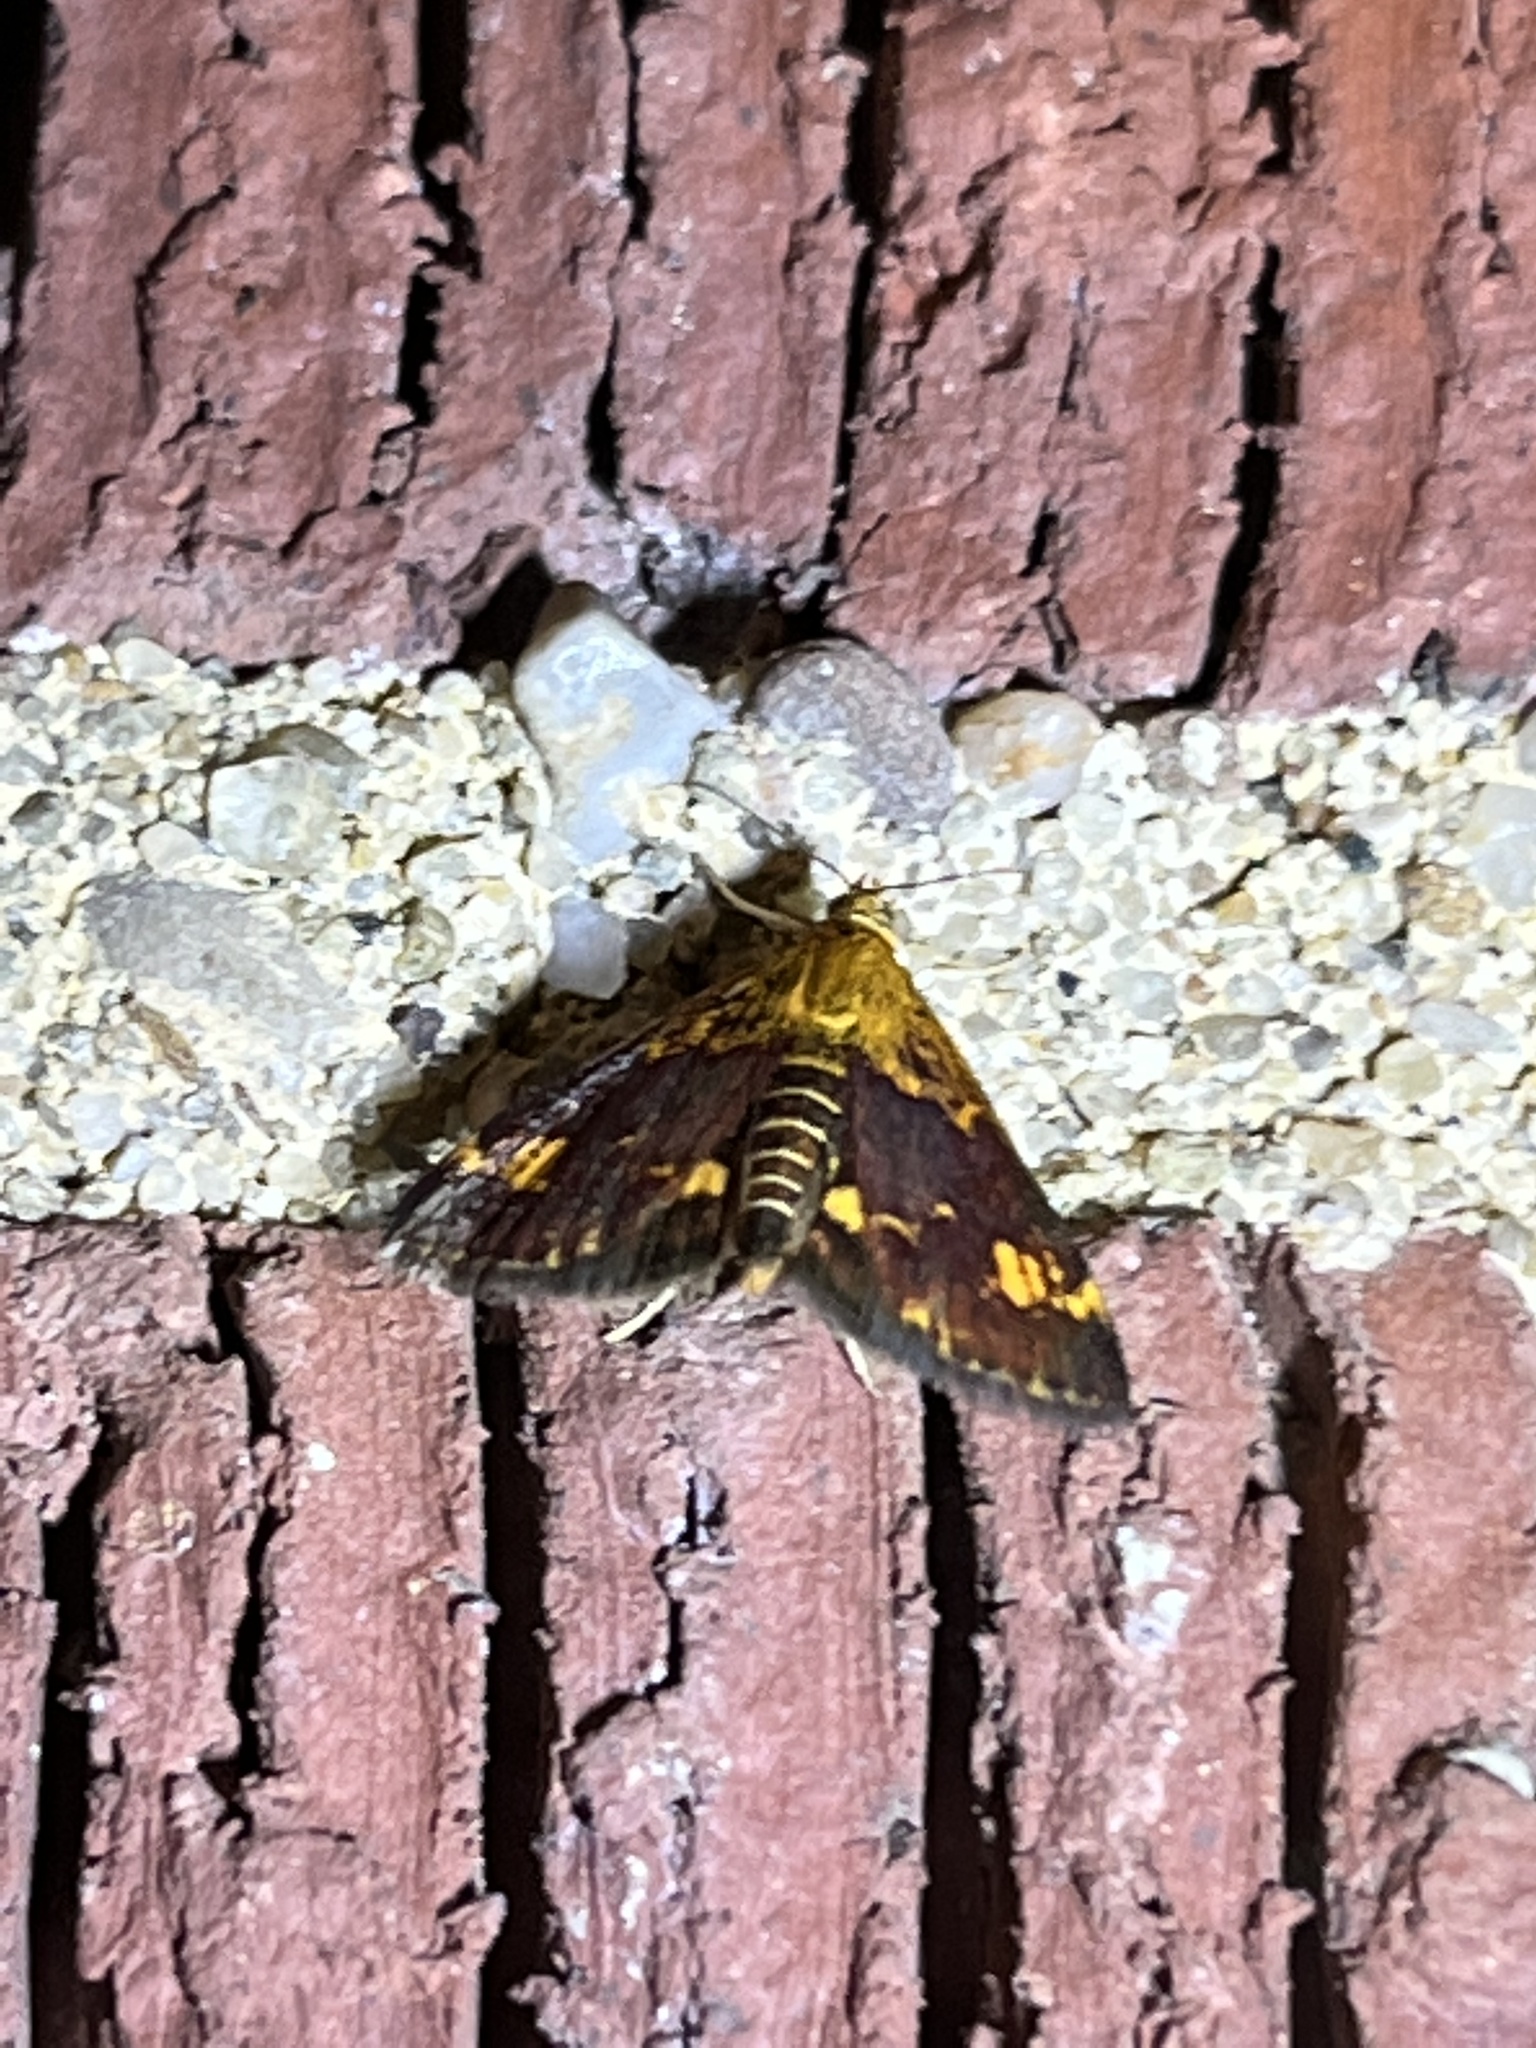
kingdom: Animalia
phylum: Arthropoda
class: Insecta
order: Lepidoptera
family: Crambidae
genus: Pyrausta
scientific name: Pyrausta orphisalis
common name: Orange mint moth
